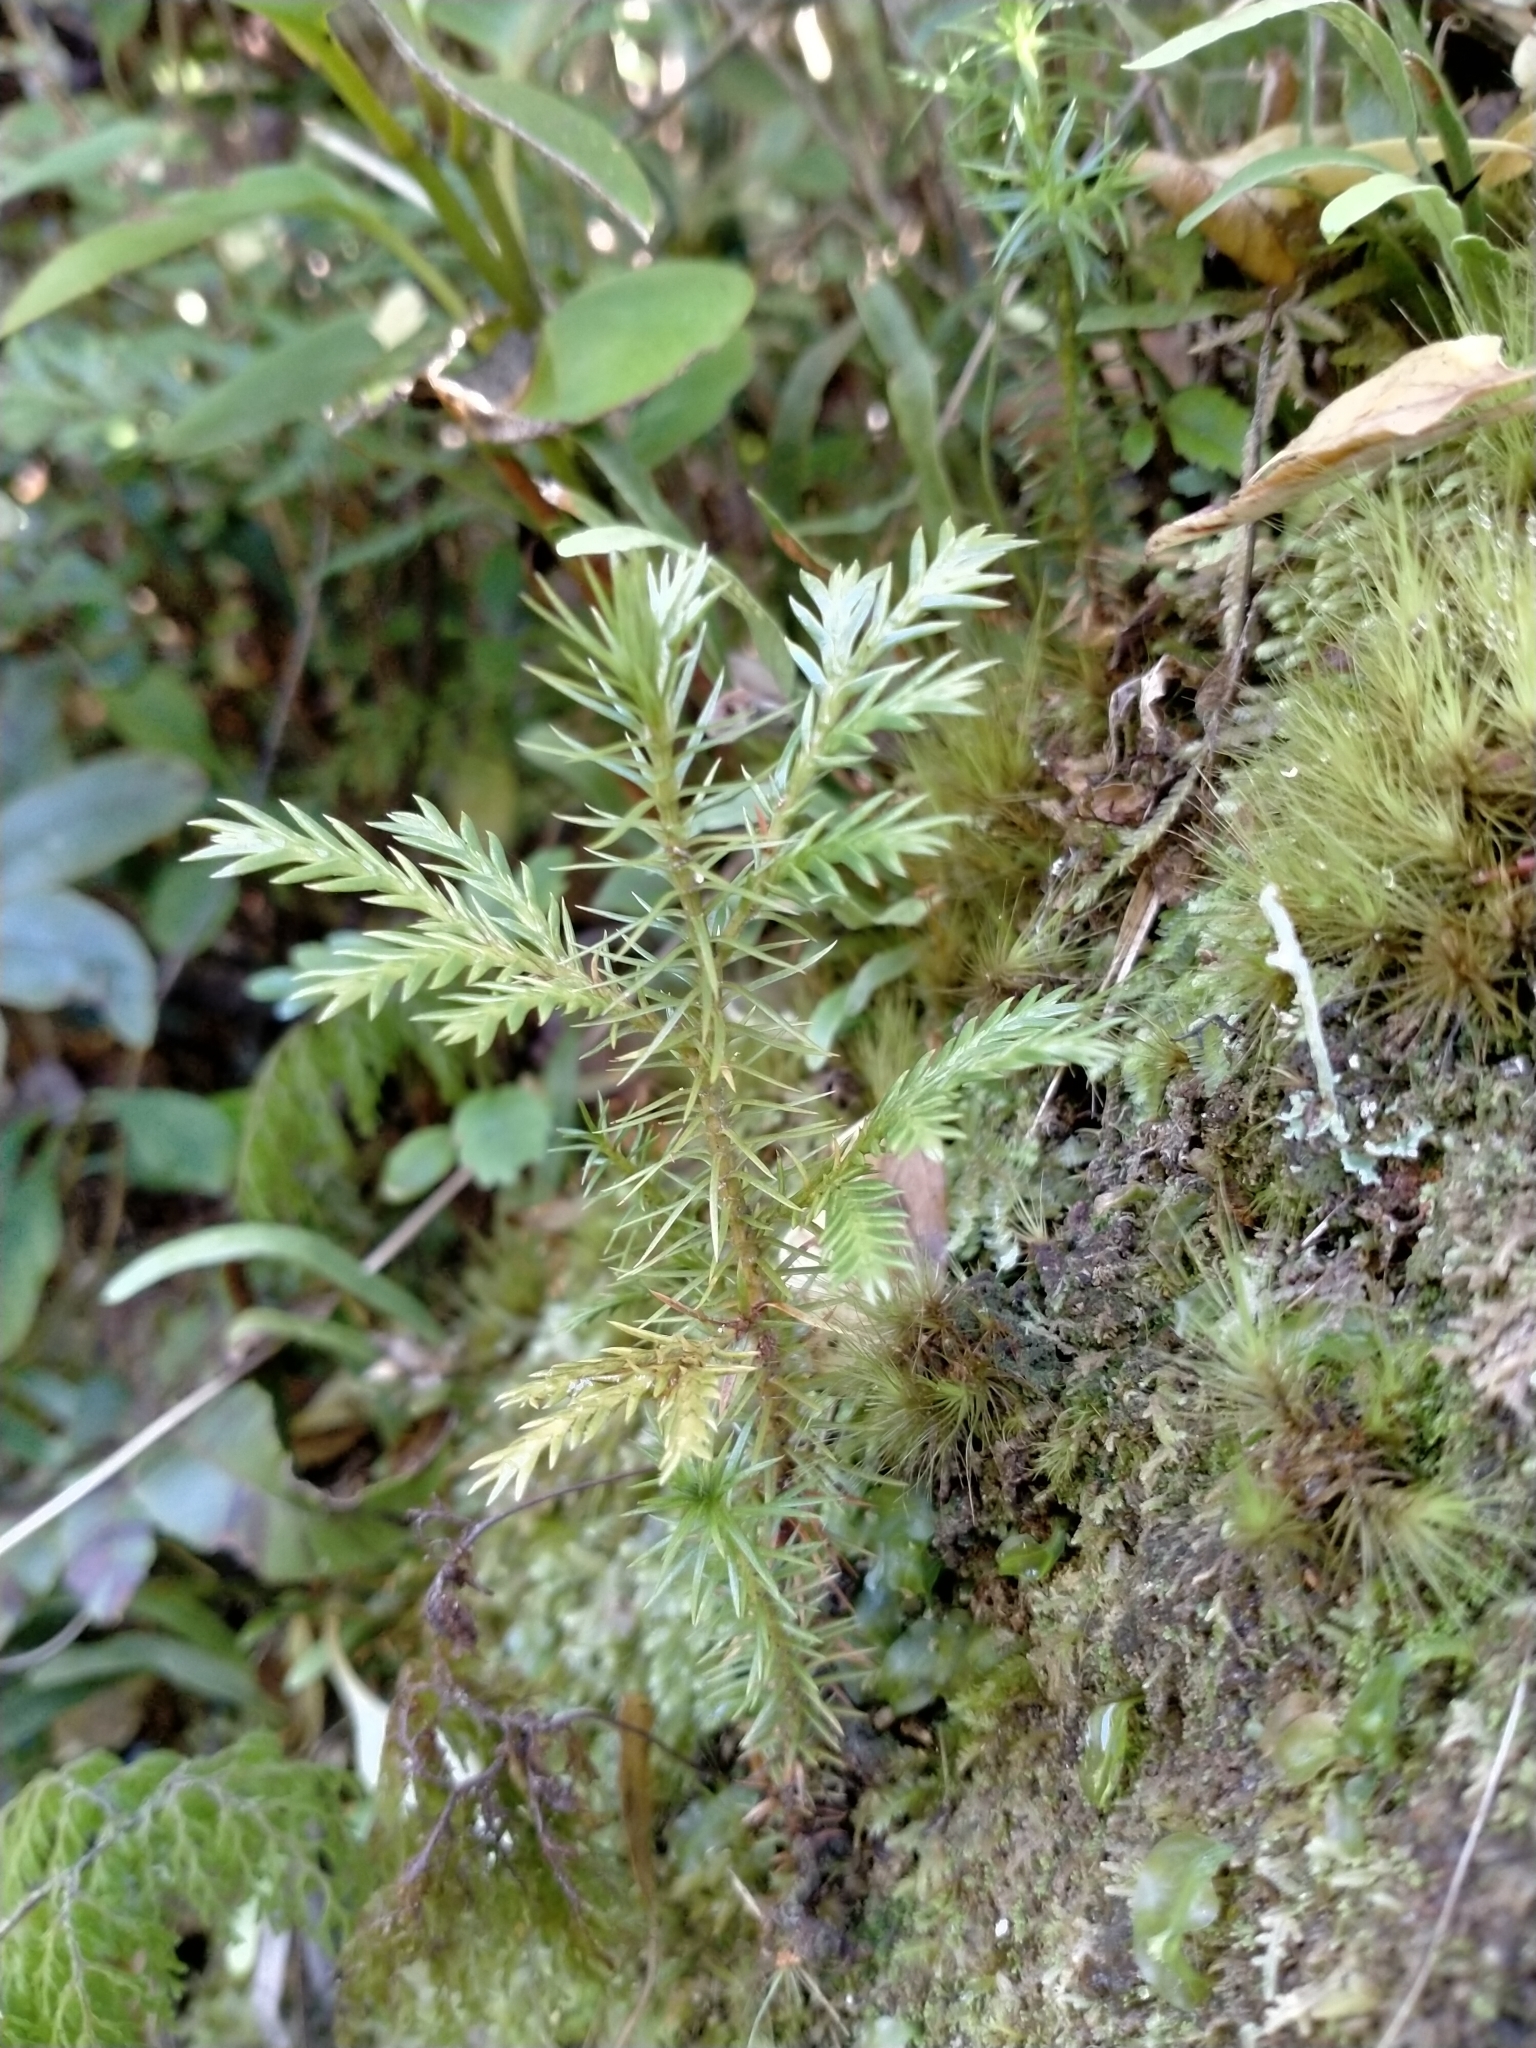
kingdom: Plantae
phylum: Tracheophyta
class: Pinopsida
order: Pinales
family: Cupressaceae
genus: Libocedrus
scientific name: Libocedrus bidwillii
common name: Cedar
